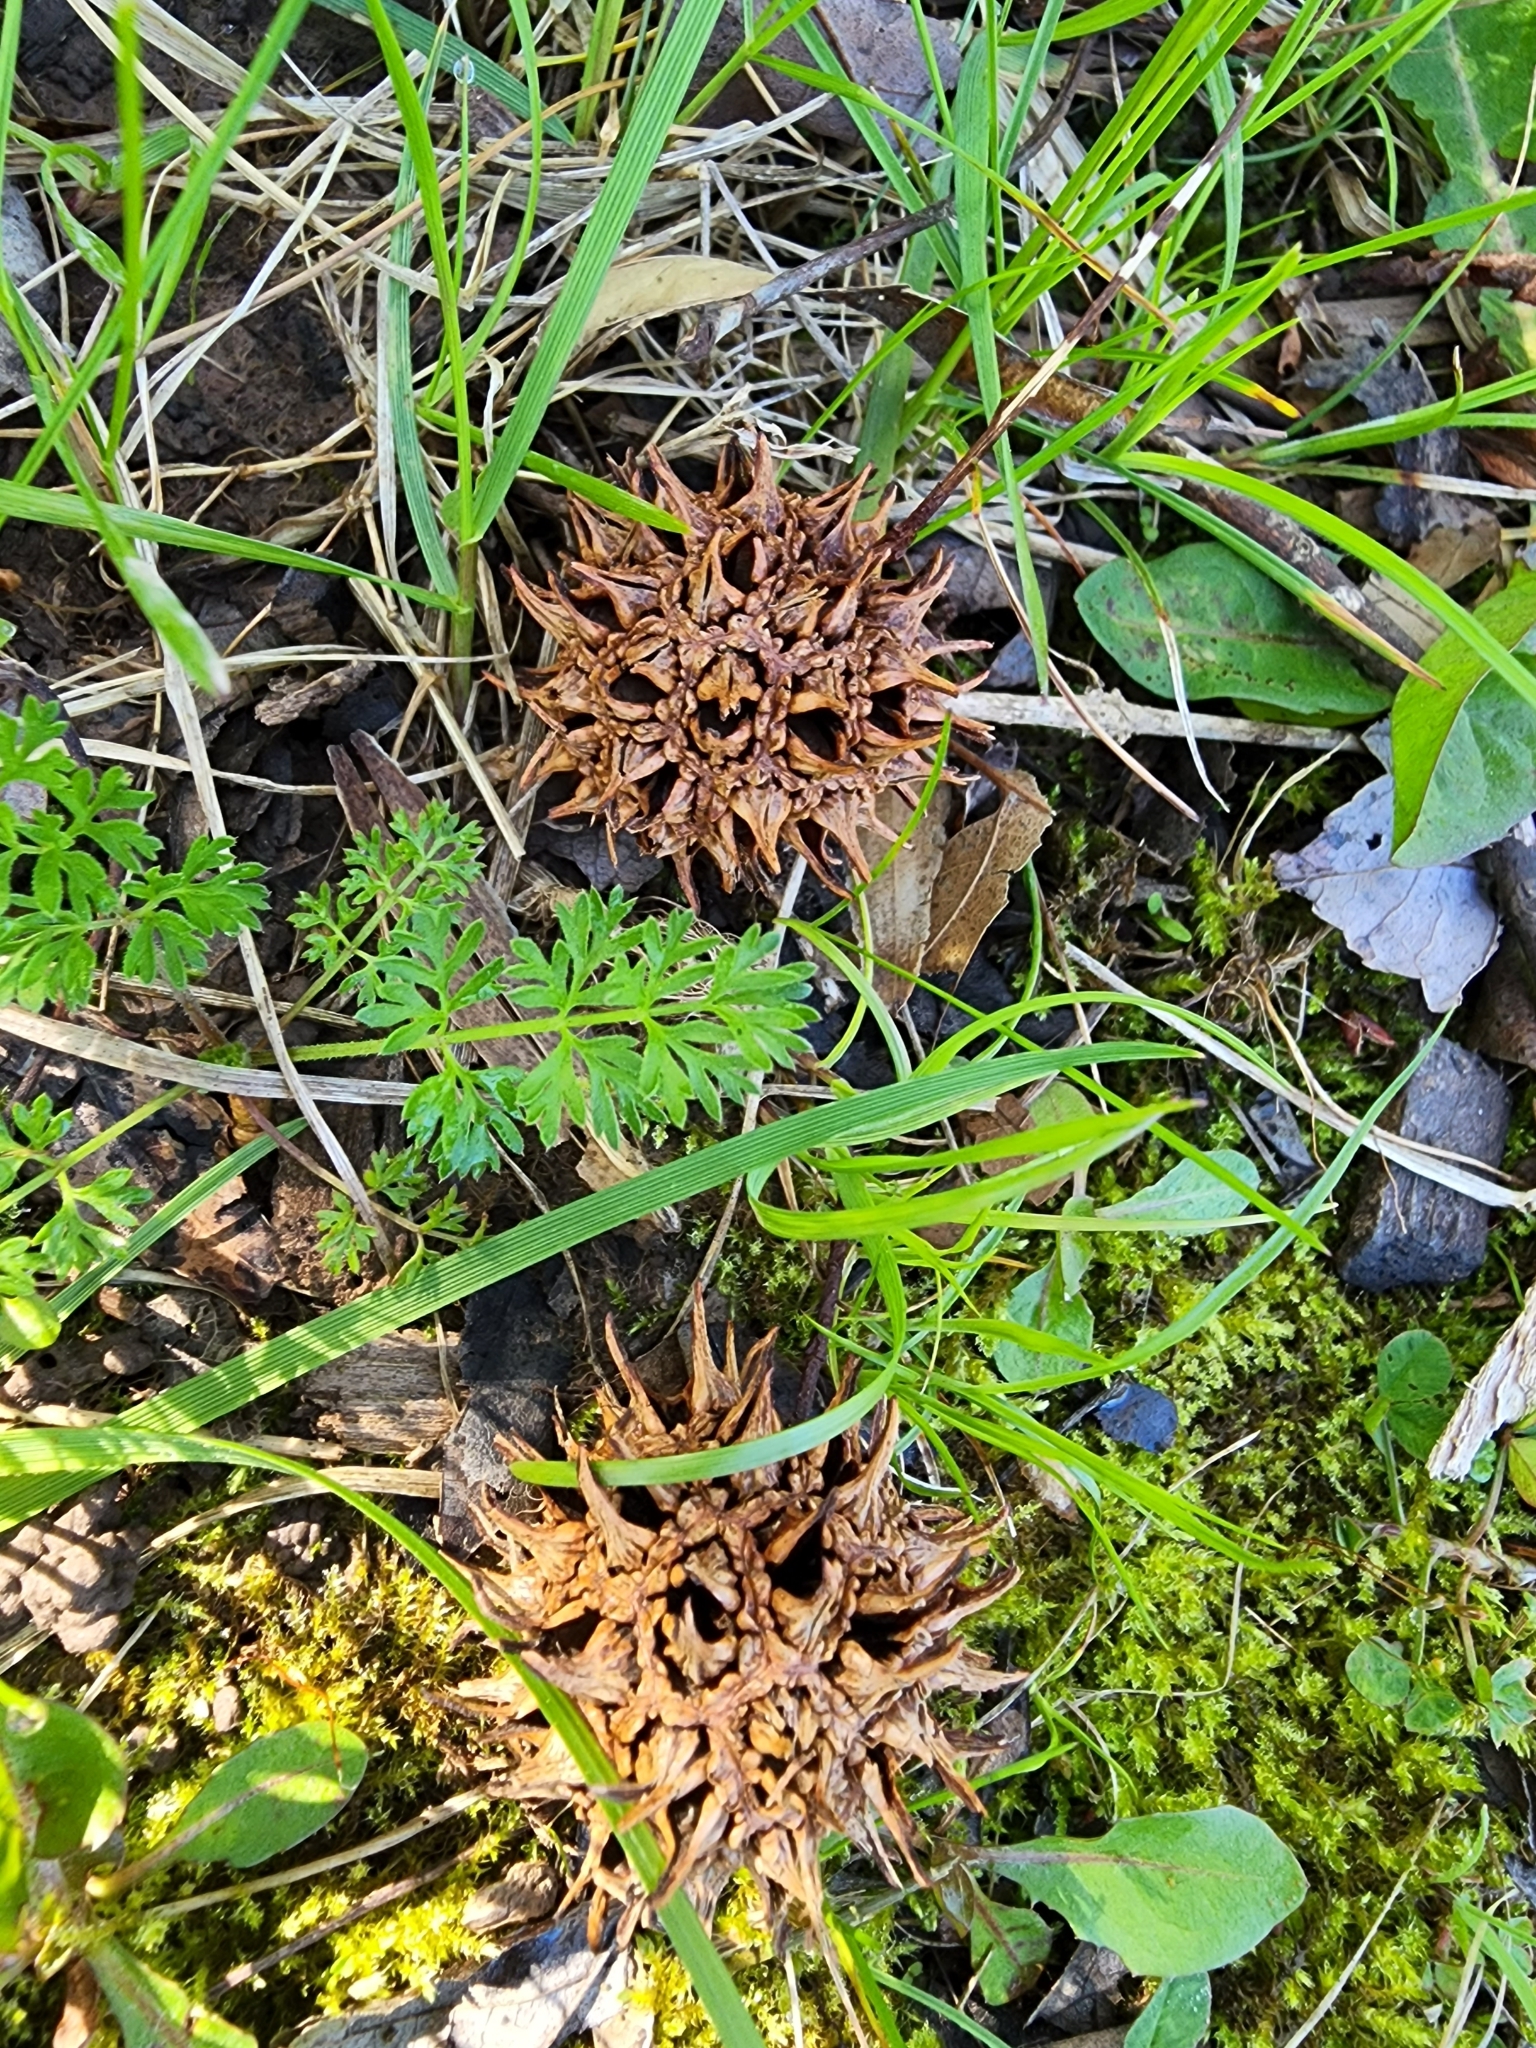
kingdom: Plantae
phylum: Tracheophyta
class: Magnoliopsida
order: Saxifragales
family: Altingiaceae
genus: Liquidambar
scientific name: Liquidambar styraciflua
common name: Sweet gum
